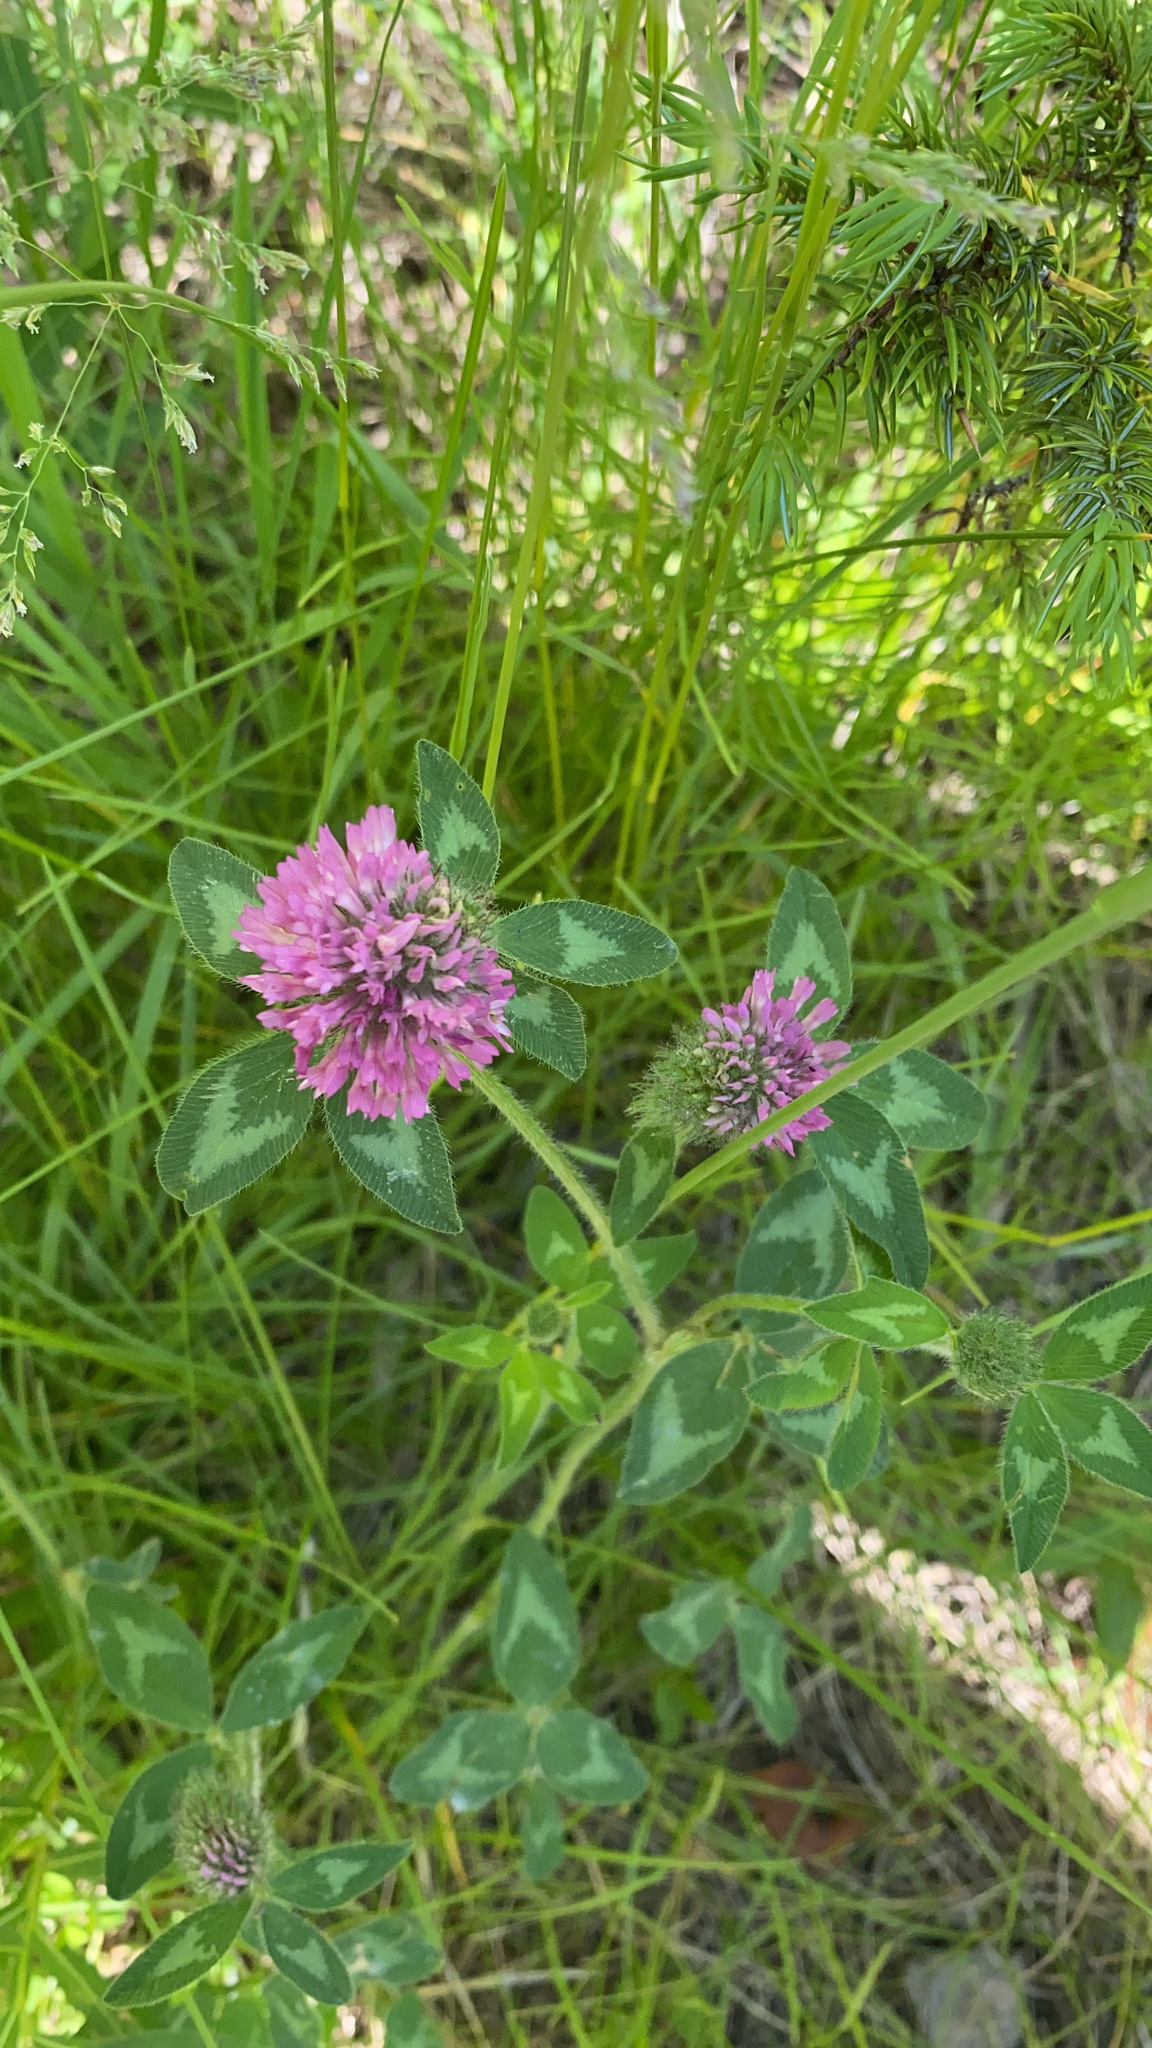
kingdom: Plantae
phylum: Tracheophyta
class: Magnoliopsida
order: Fabales
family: Fabaceae
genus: Trifolium
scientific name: Trifolium pratense
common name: Red clover
